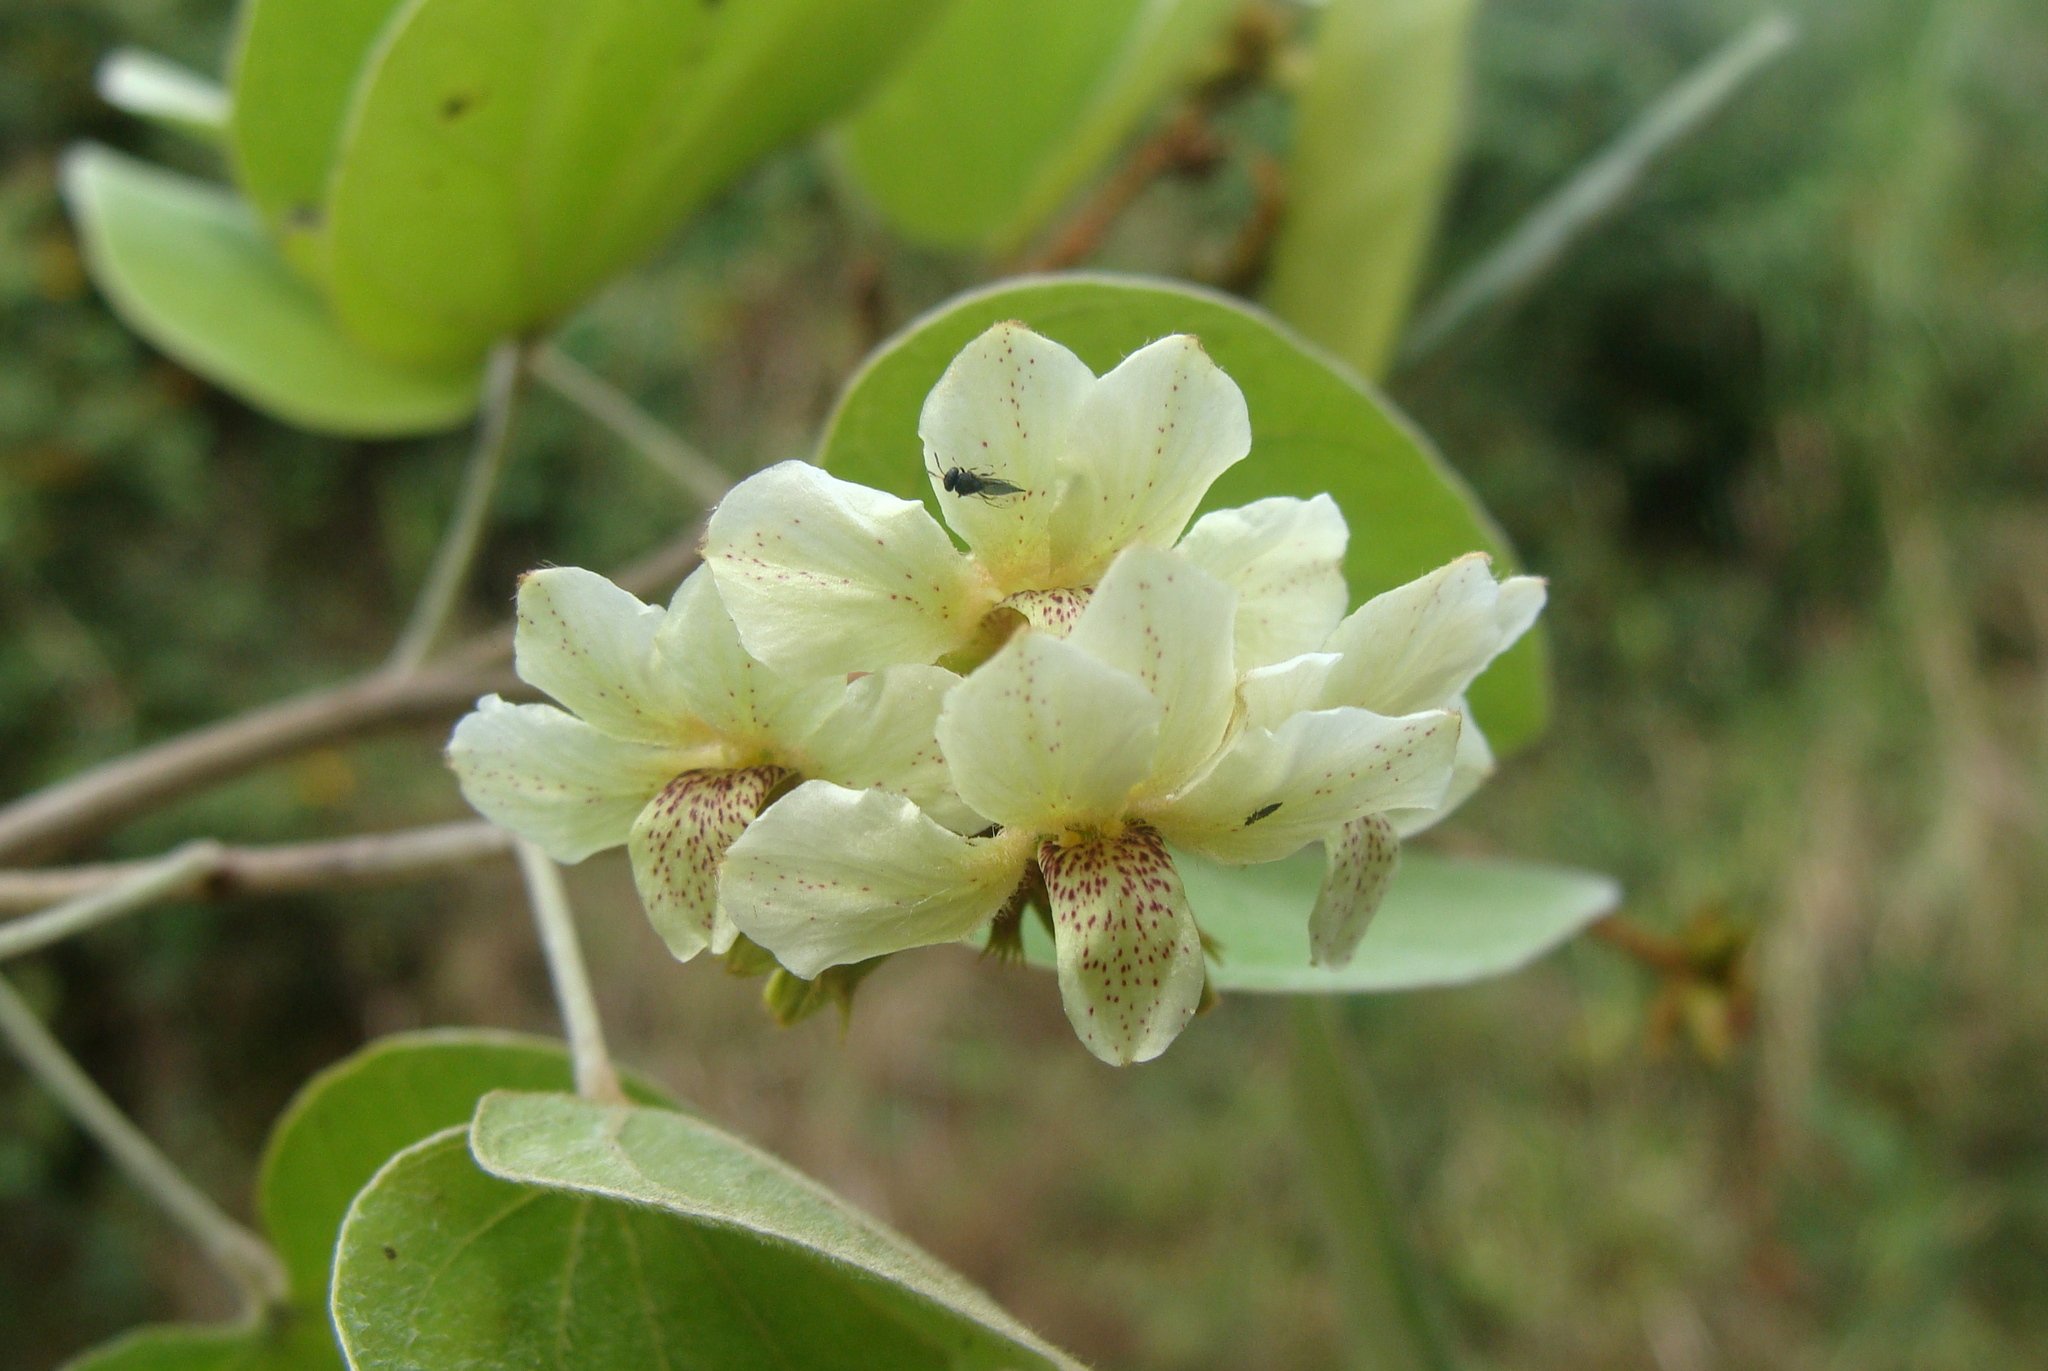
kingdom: Plantae
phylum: Tracheophyta
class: Magnoliopsida
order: Fabales
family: Fabaceae
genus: Schnella
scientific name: Schnella glabra
